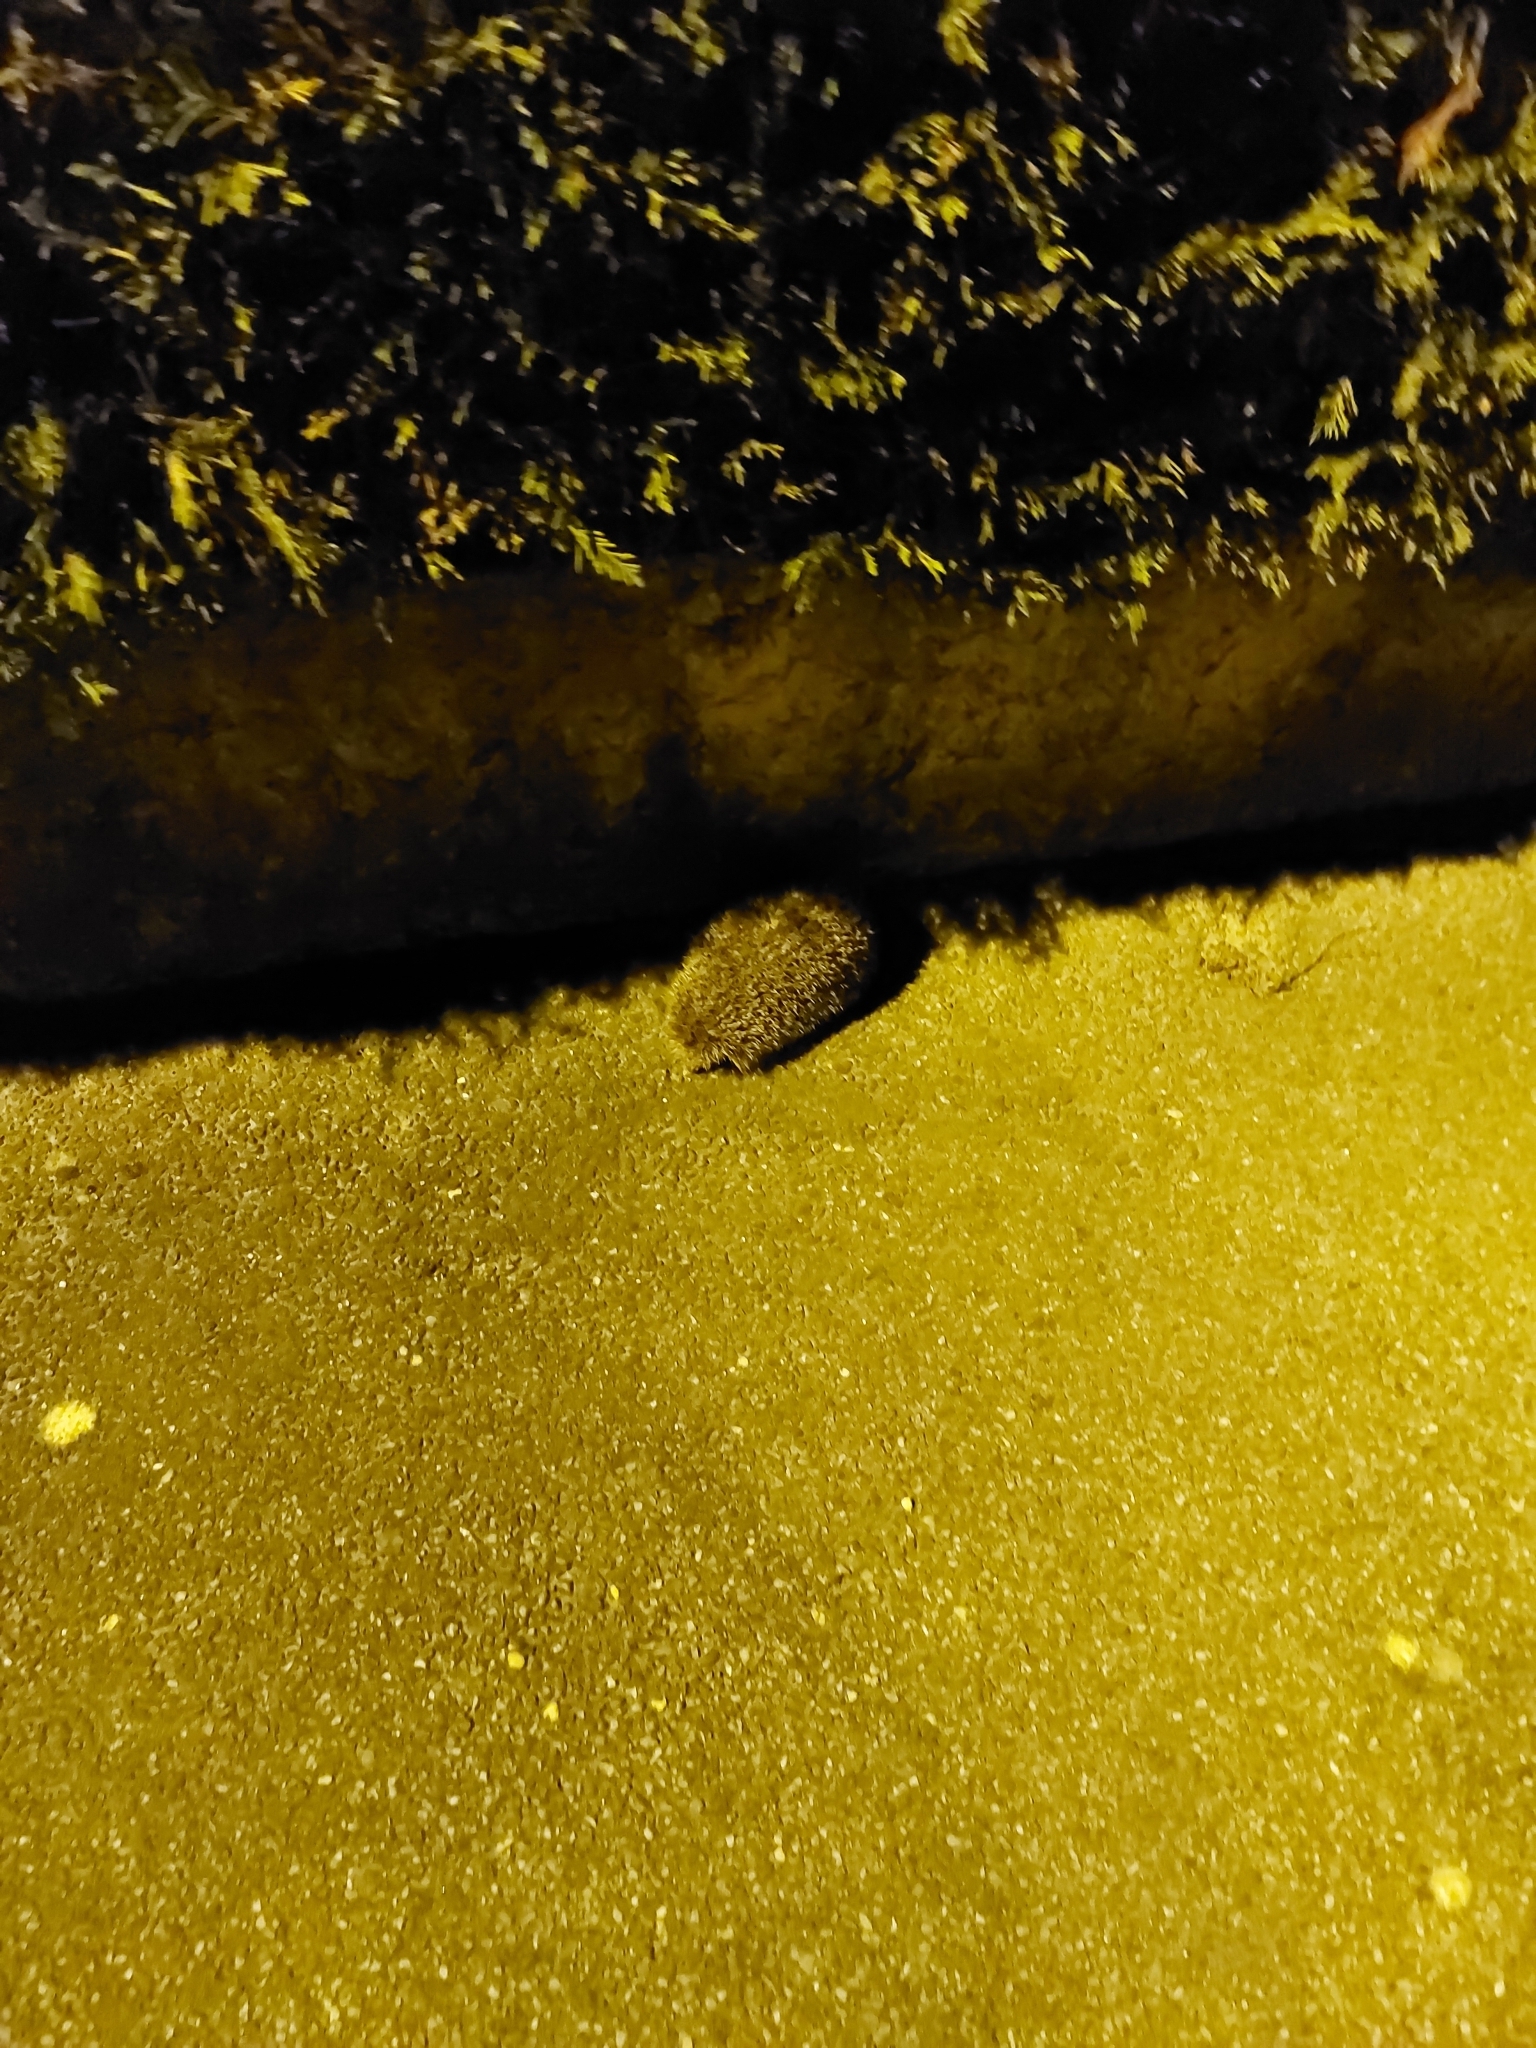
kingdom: Animalia
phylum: Chordata
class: Mammalia
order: Erinaceomorpha
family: Erinaceidae
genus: Erinaceus
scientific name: Erinaceus europaeus
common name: West european hedgehog
